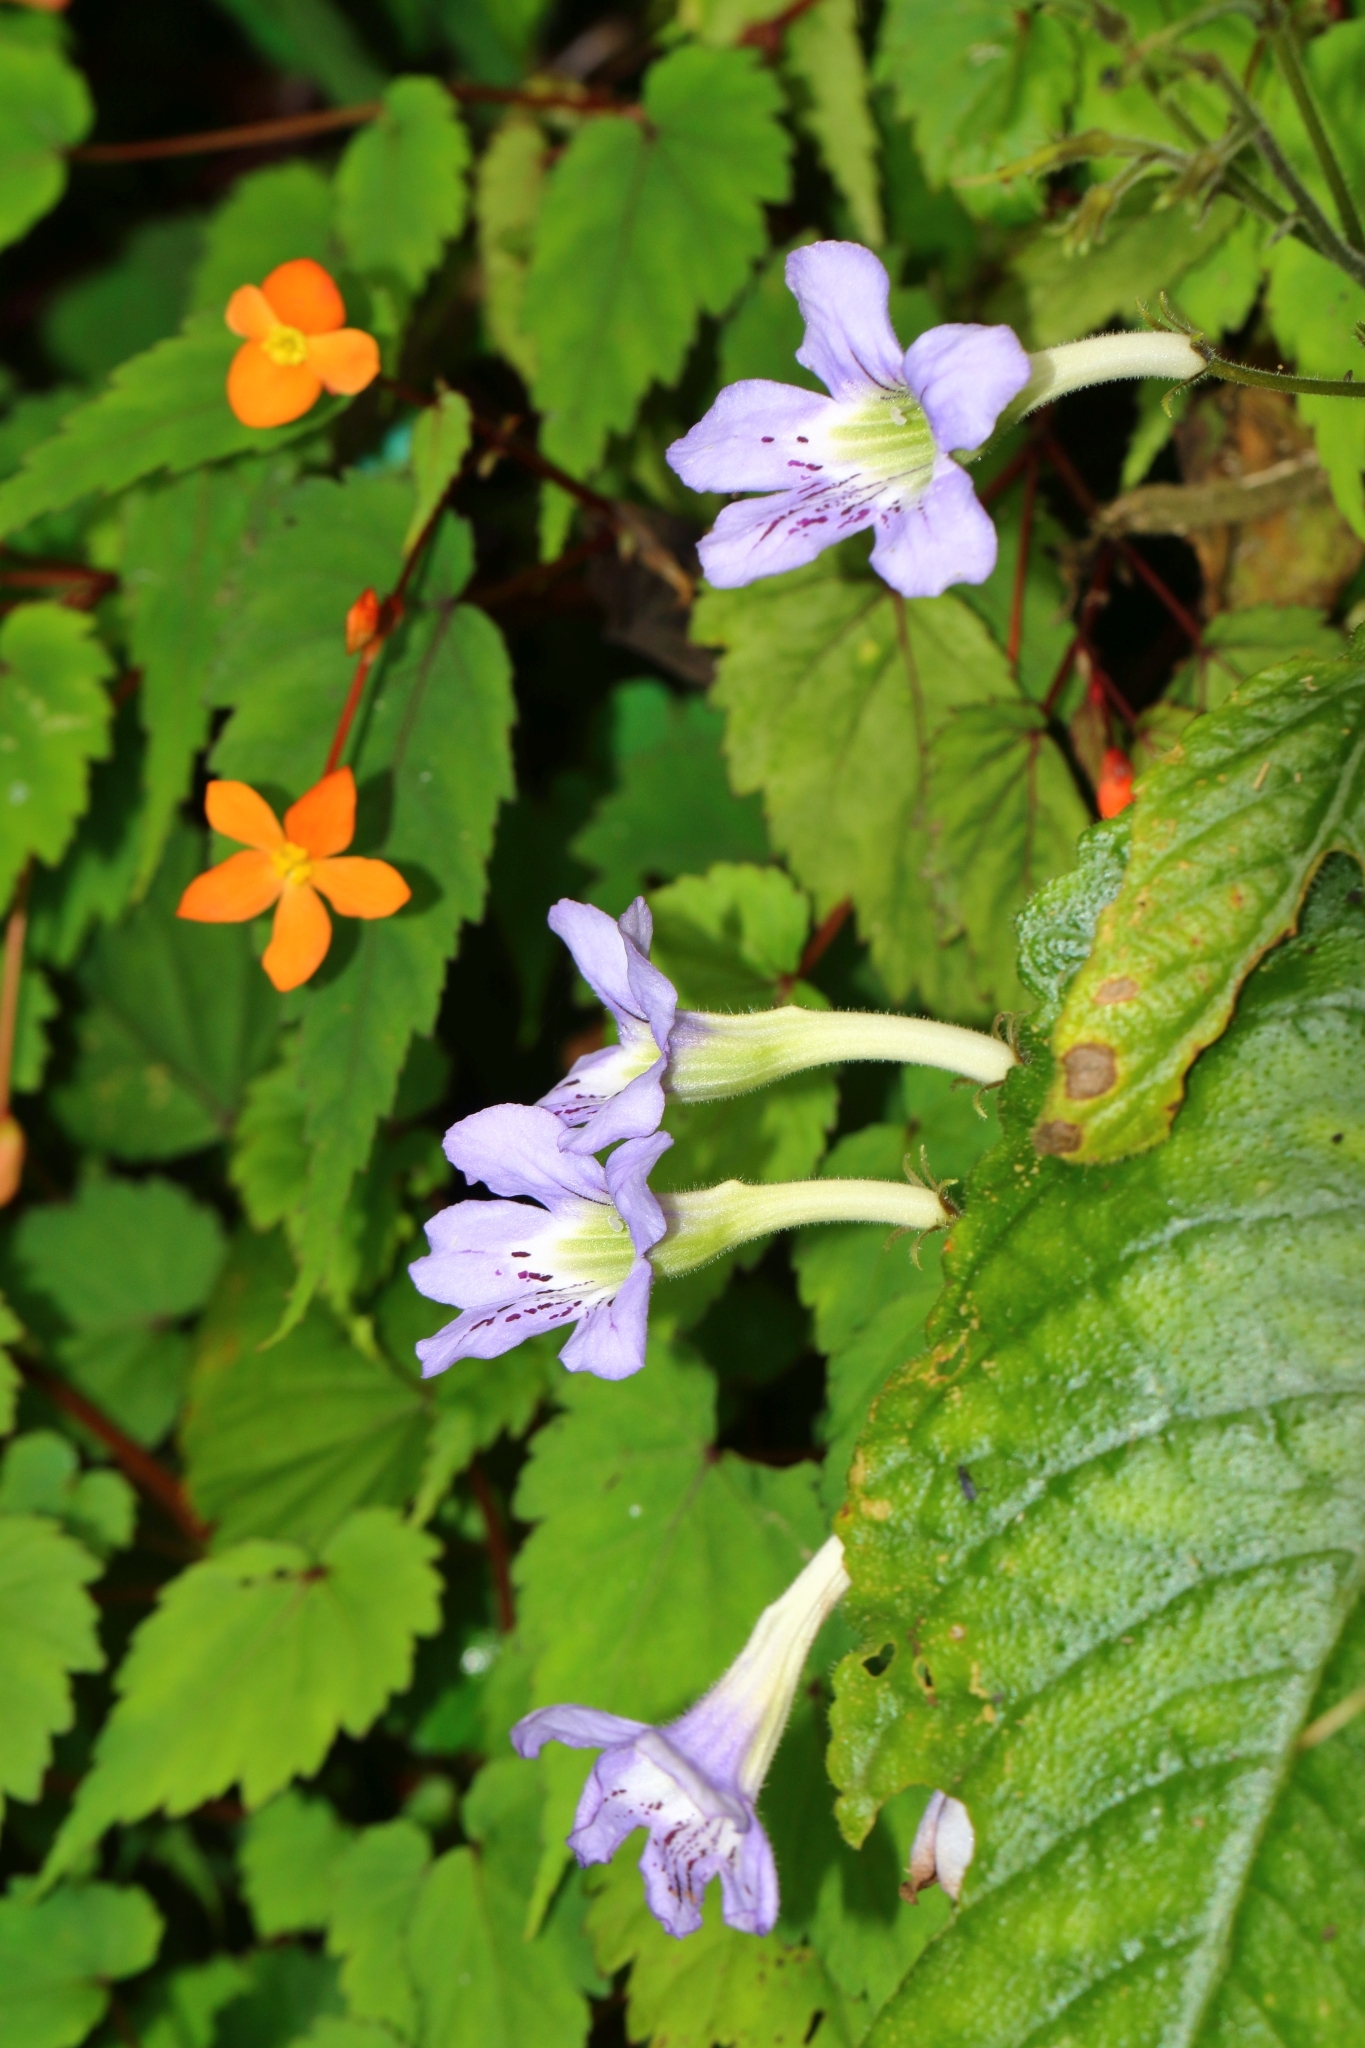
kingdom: Plantae
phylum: Tracheophyta
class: Magnoliopsida
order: Lamiales
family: Gesneriaceae
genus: Streptocarpus
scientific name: Streptocarpus gardenii
